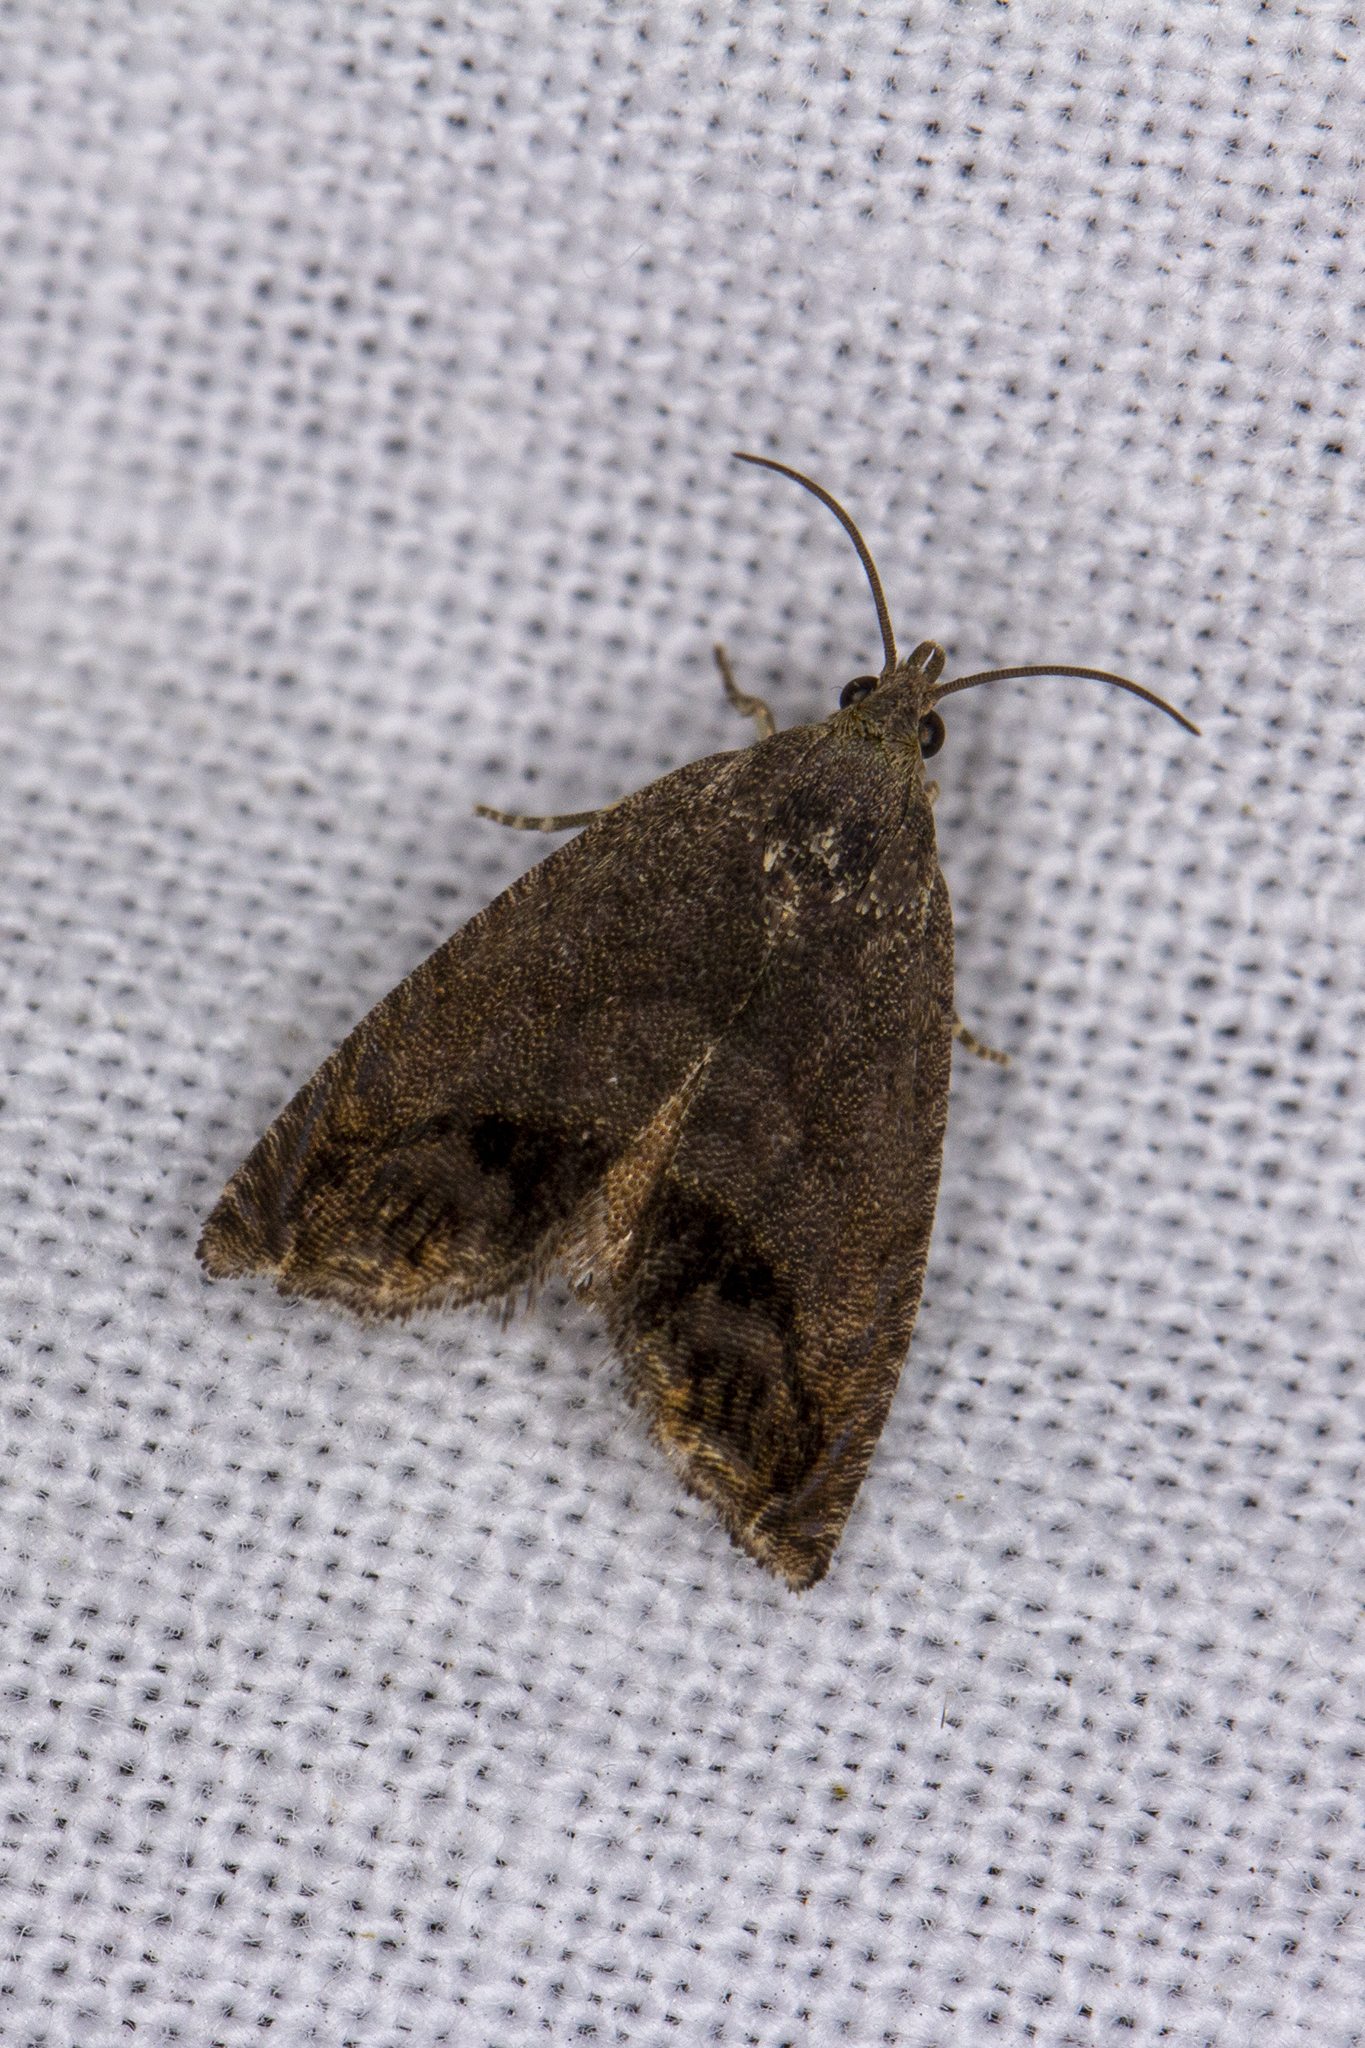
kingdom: Animalia
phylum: Arthropoda
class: Insecta
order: Lepidoptera
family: Tortricidae
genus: Cydia
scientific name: Cydia splendana
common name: De: kastanienwickler, eichenwickler es: oruga de la castaña fr: carpocapse des châtaignes it: cidia o tortrice tardiva delle castagne pt: bichado das castanhas gb: acorn moth, chestnut fruit tortrix
